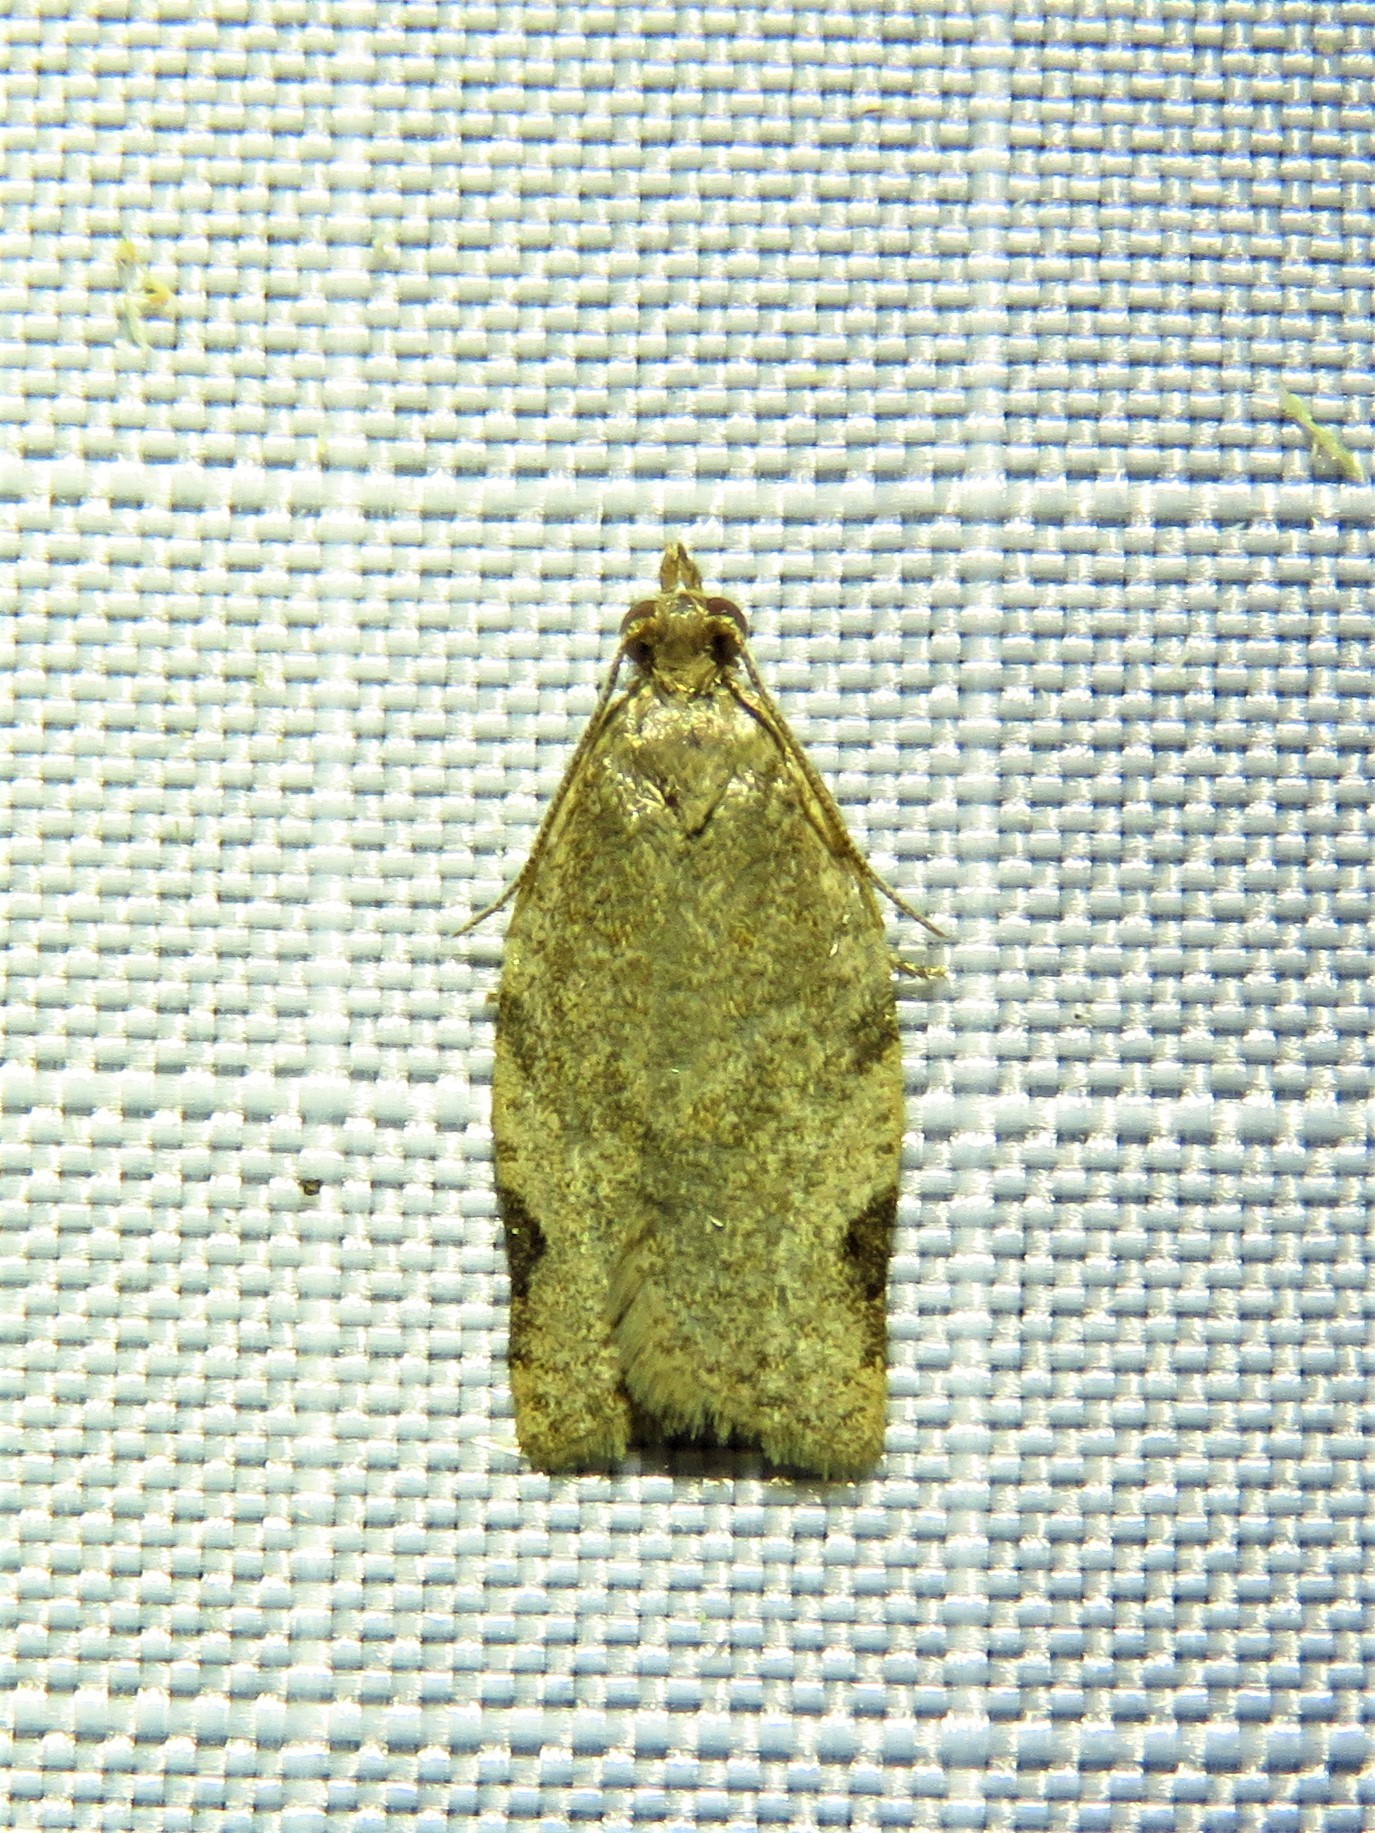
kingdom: Animalia
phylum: Arthropoda
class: Insecta
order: Lepidoptera
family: Tortricidae
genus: Clepsis
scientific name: Clepsis virescana
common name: Greenish apple moth
